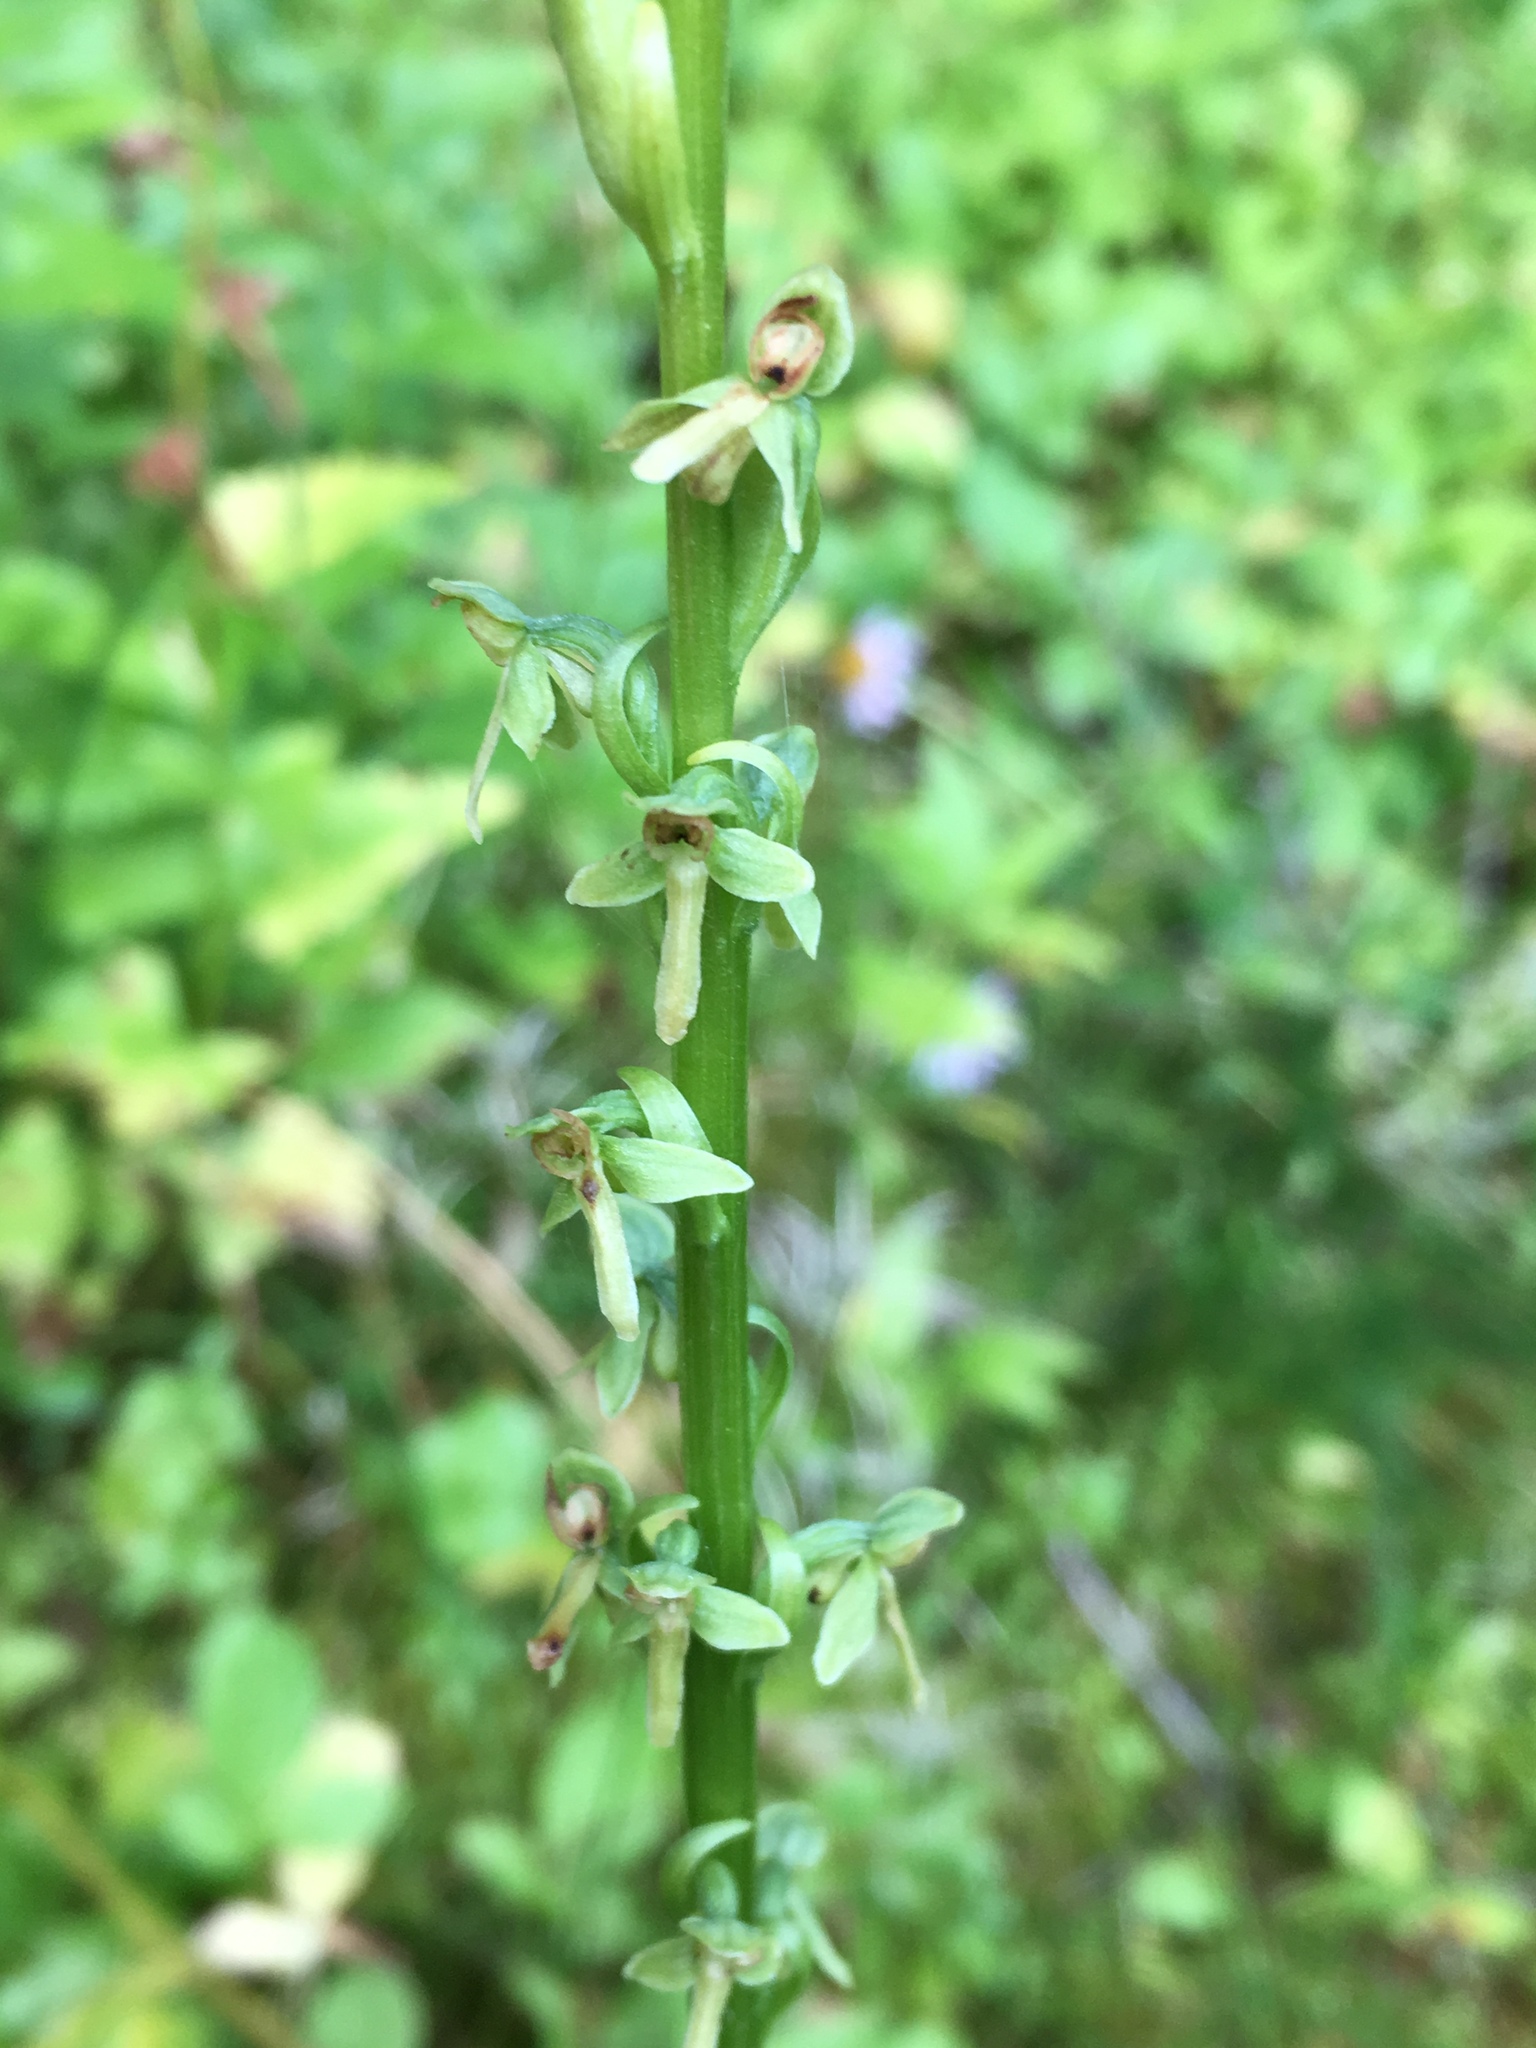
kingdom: Plantae
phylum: Tracheophyta
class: Liliopsida
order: Asparagales
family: Orchidaceae
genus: Platanthera
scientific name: Platanthera stricta
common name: Slender bog orchid
